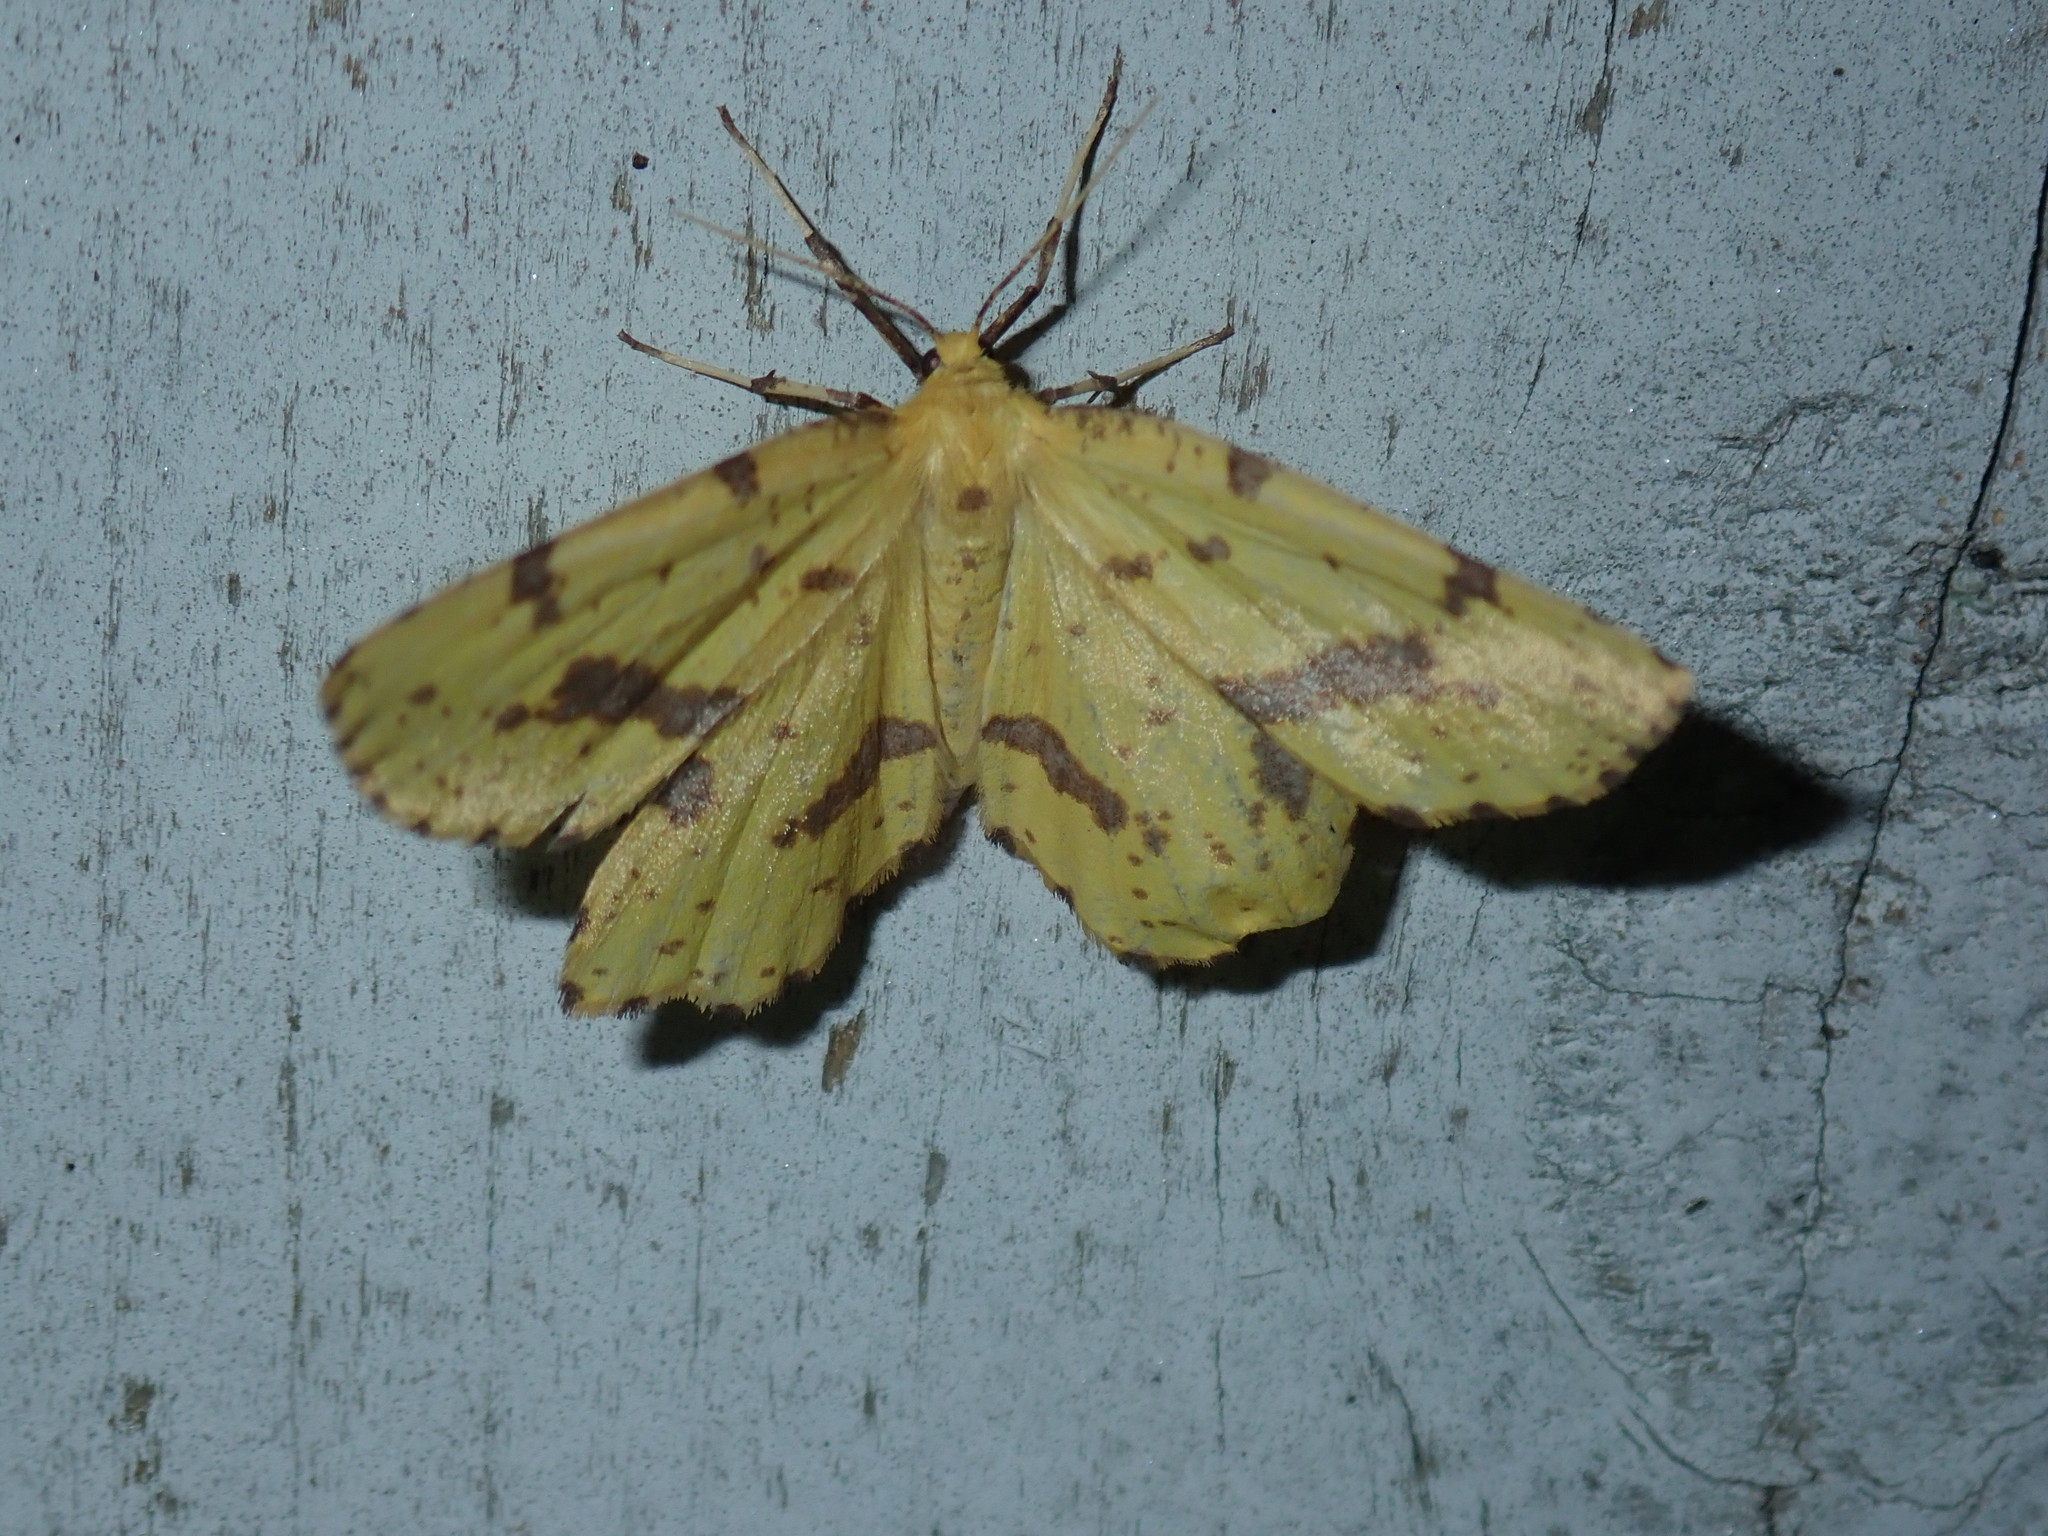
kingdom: Animalia
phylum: Arthropoda
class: Insecta
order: Lepidoptera
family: Geometridae
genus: Xanthotype
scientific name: Xanthotype
